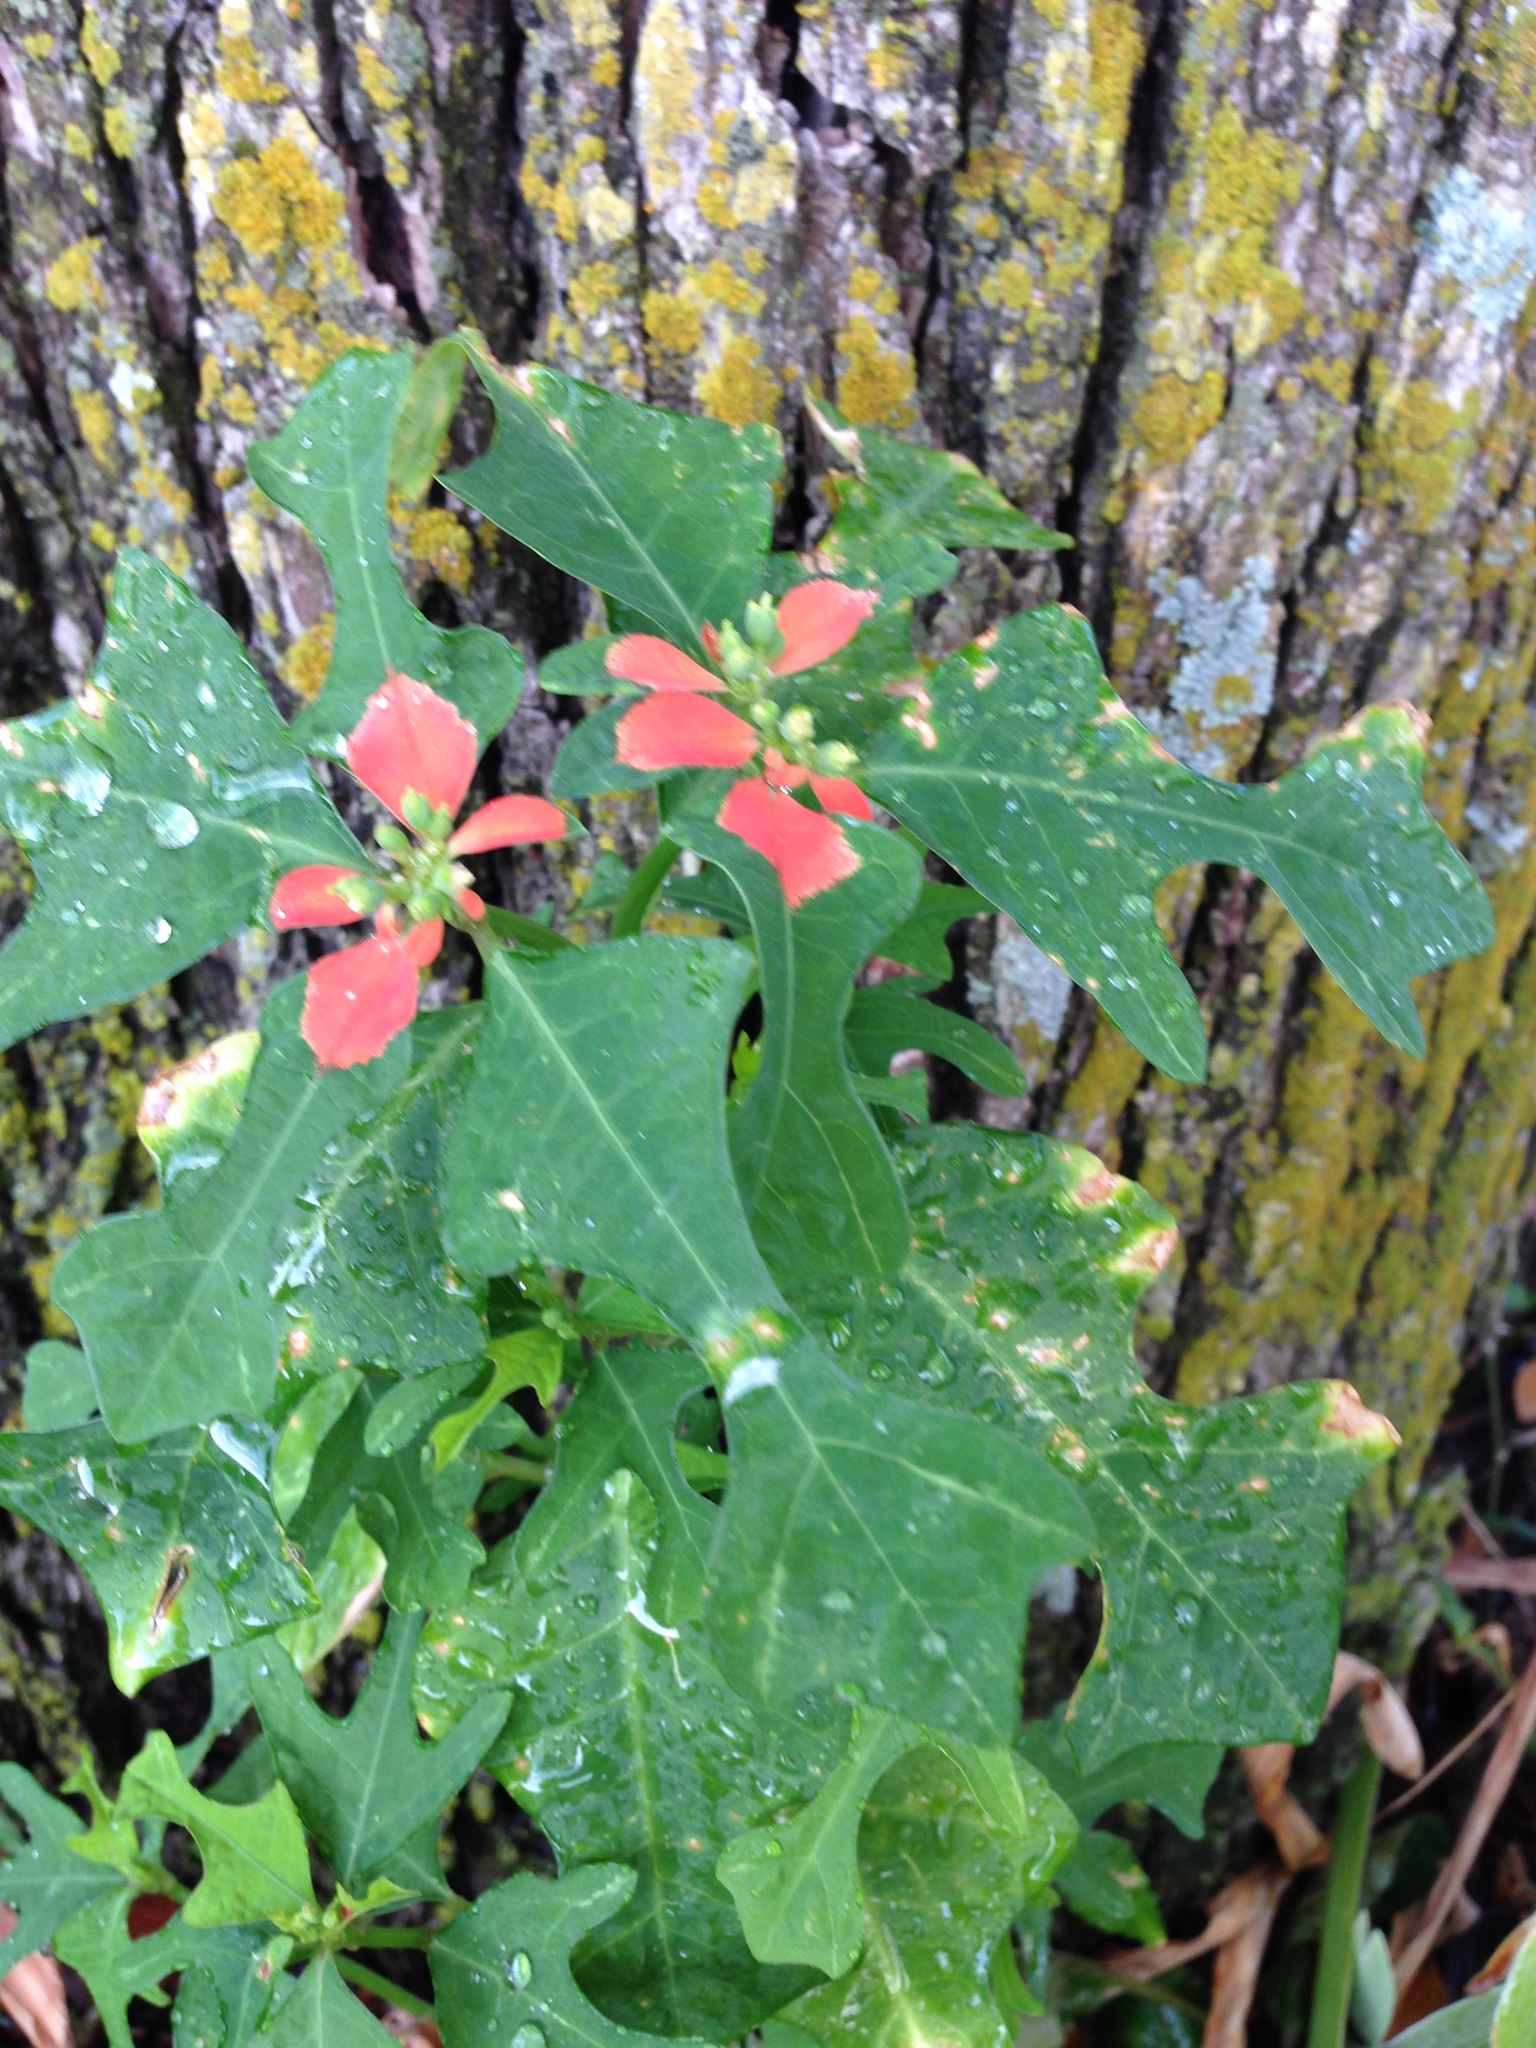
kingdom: Plantae
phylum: Tracheophyta
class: Magnoliopsida
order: Malpighiales
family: Euphorbiaceae
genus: Euphorbia
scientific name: Euphorbia heterophylla
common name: Mexican fireplant
